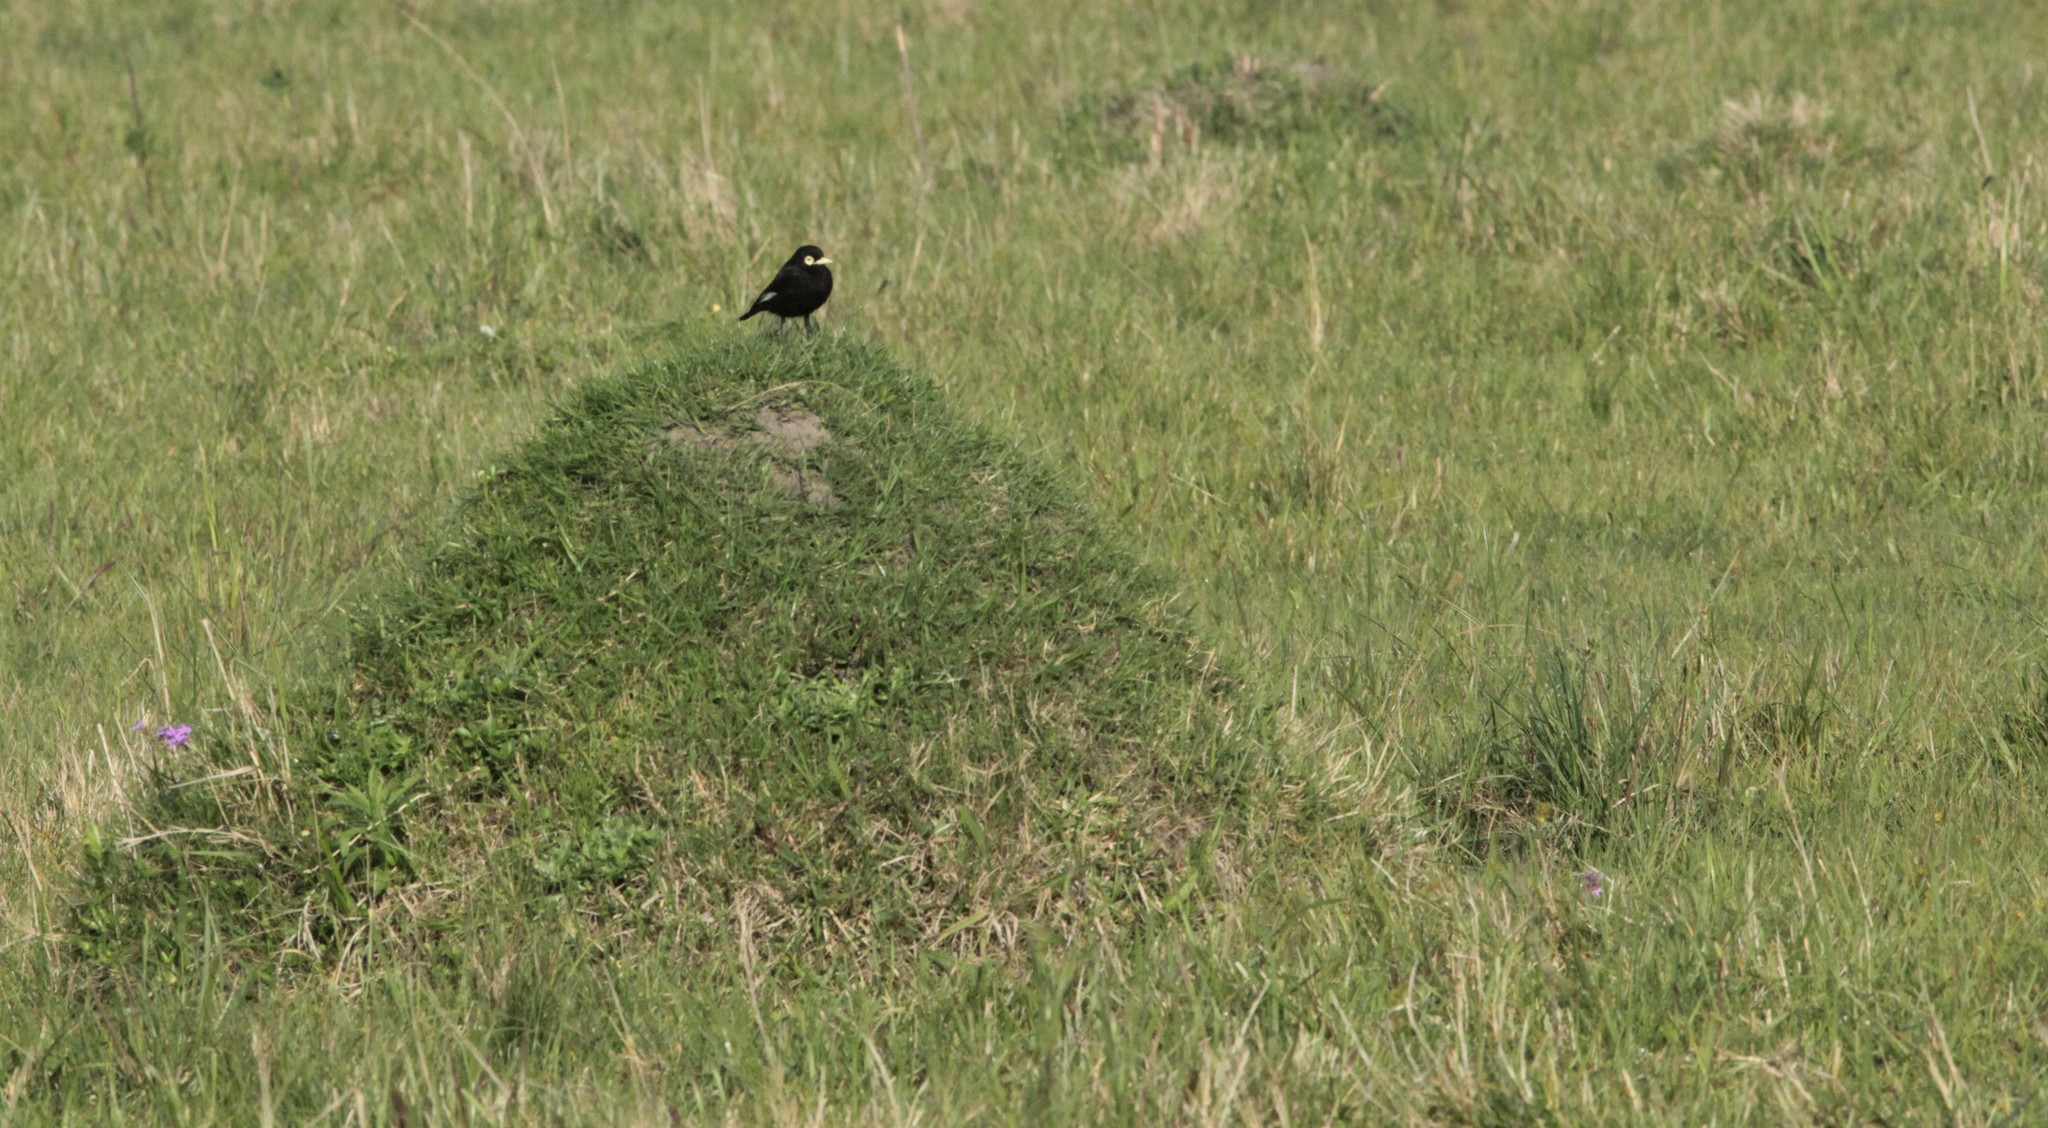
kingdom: Animalia
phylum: Chordata
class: Aves
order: Passeriformes
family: Tyrannidae
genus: Hymenops
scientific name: Hymenops perspicillatus
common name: Spectacled tyrant
